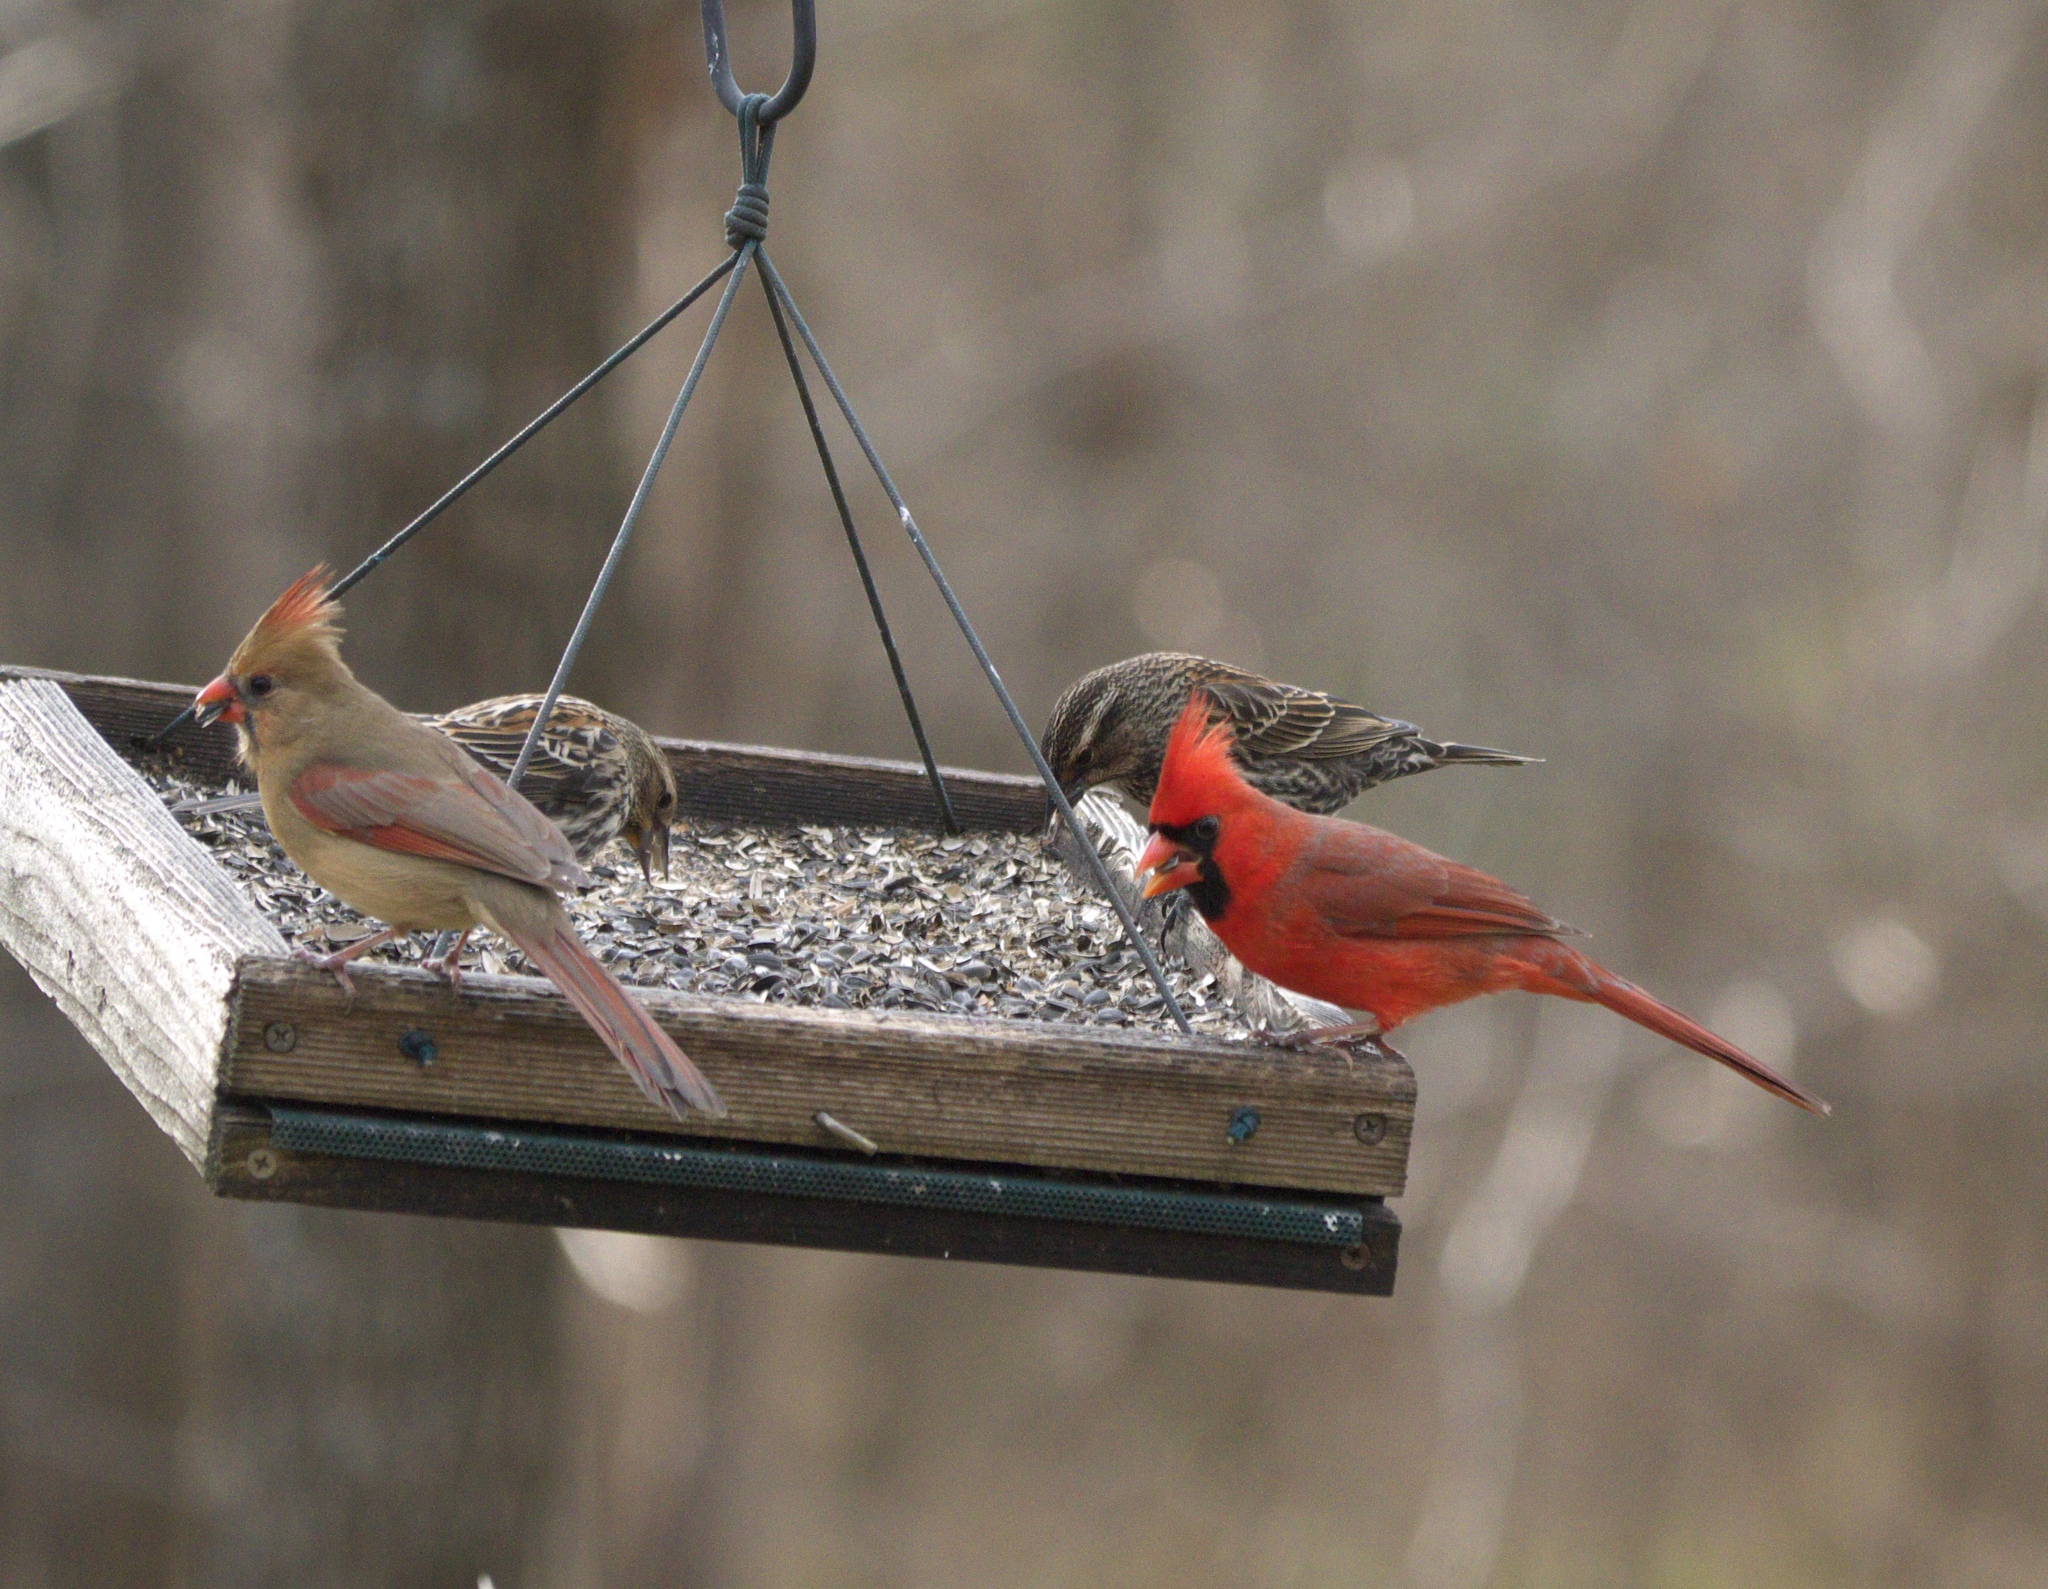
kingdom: Animalia
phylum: Chordata
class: Aves
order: Passeriformes
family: Cardinalidae
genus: Cardinalis
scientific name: Cardinalis cardinalis
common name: Northern cardinal
